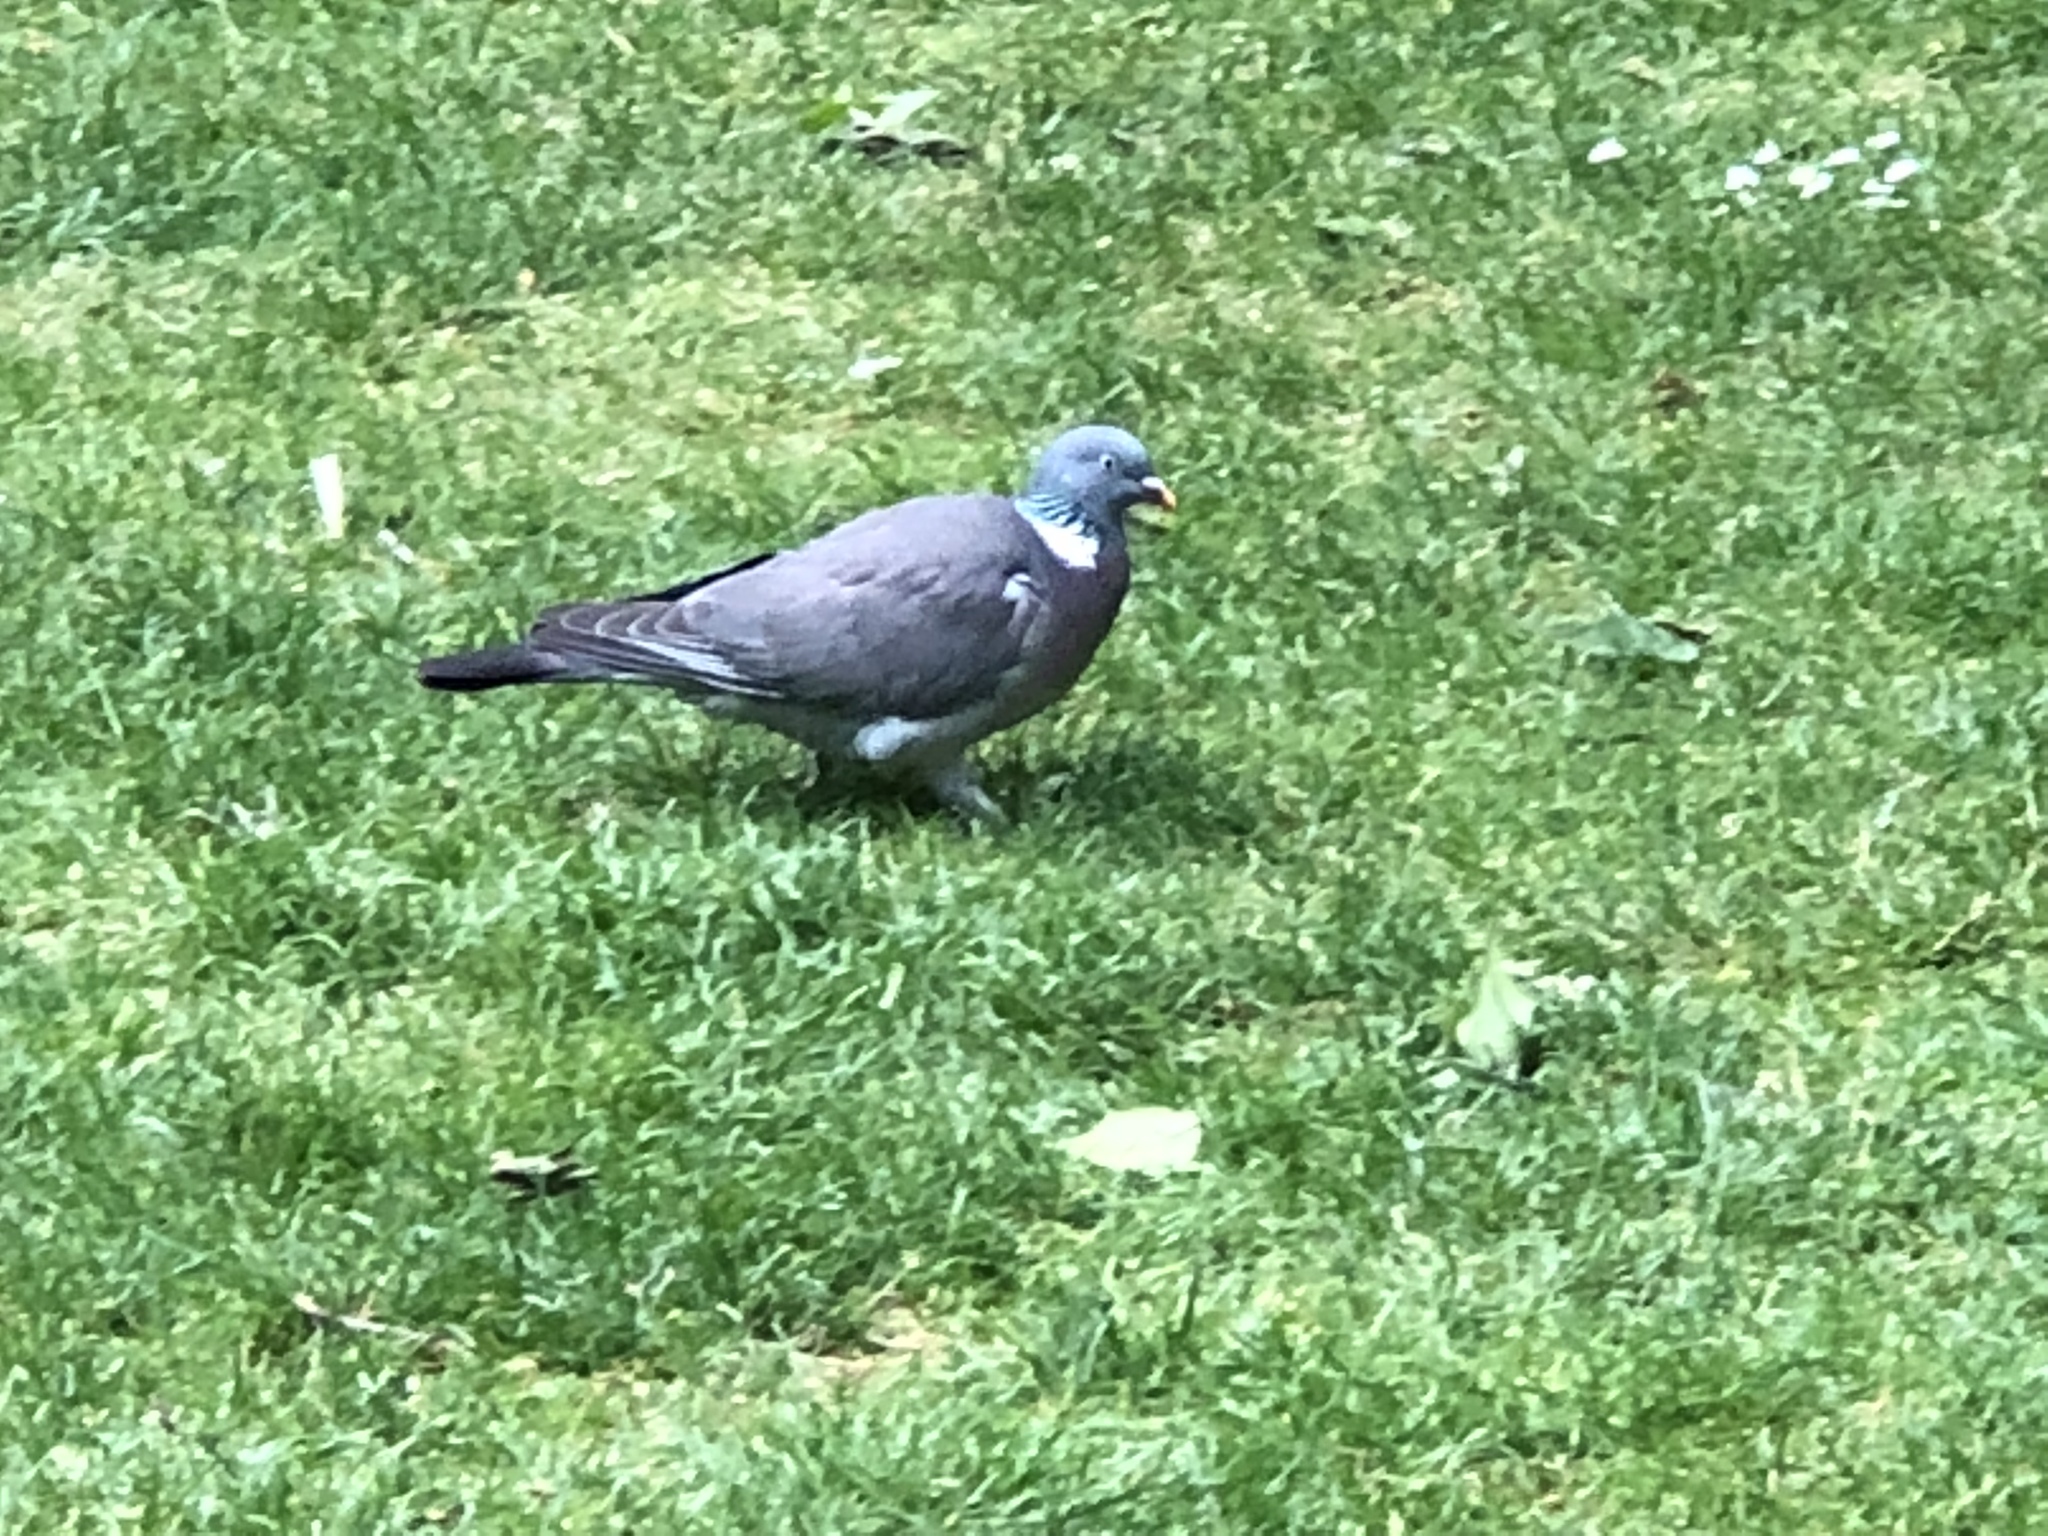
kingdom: Animalia
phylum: Chordata
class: Aves
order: Columbiformes
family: Columbidae
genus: Columba
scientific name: Columba palumbus
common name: Common wood pigeon
